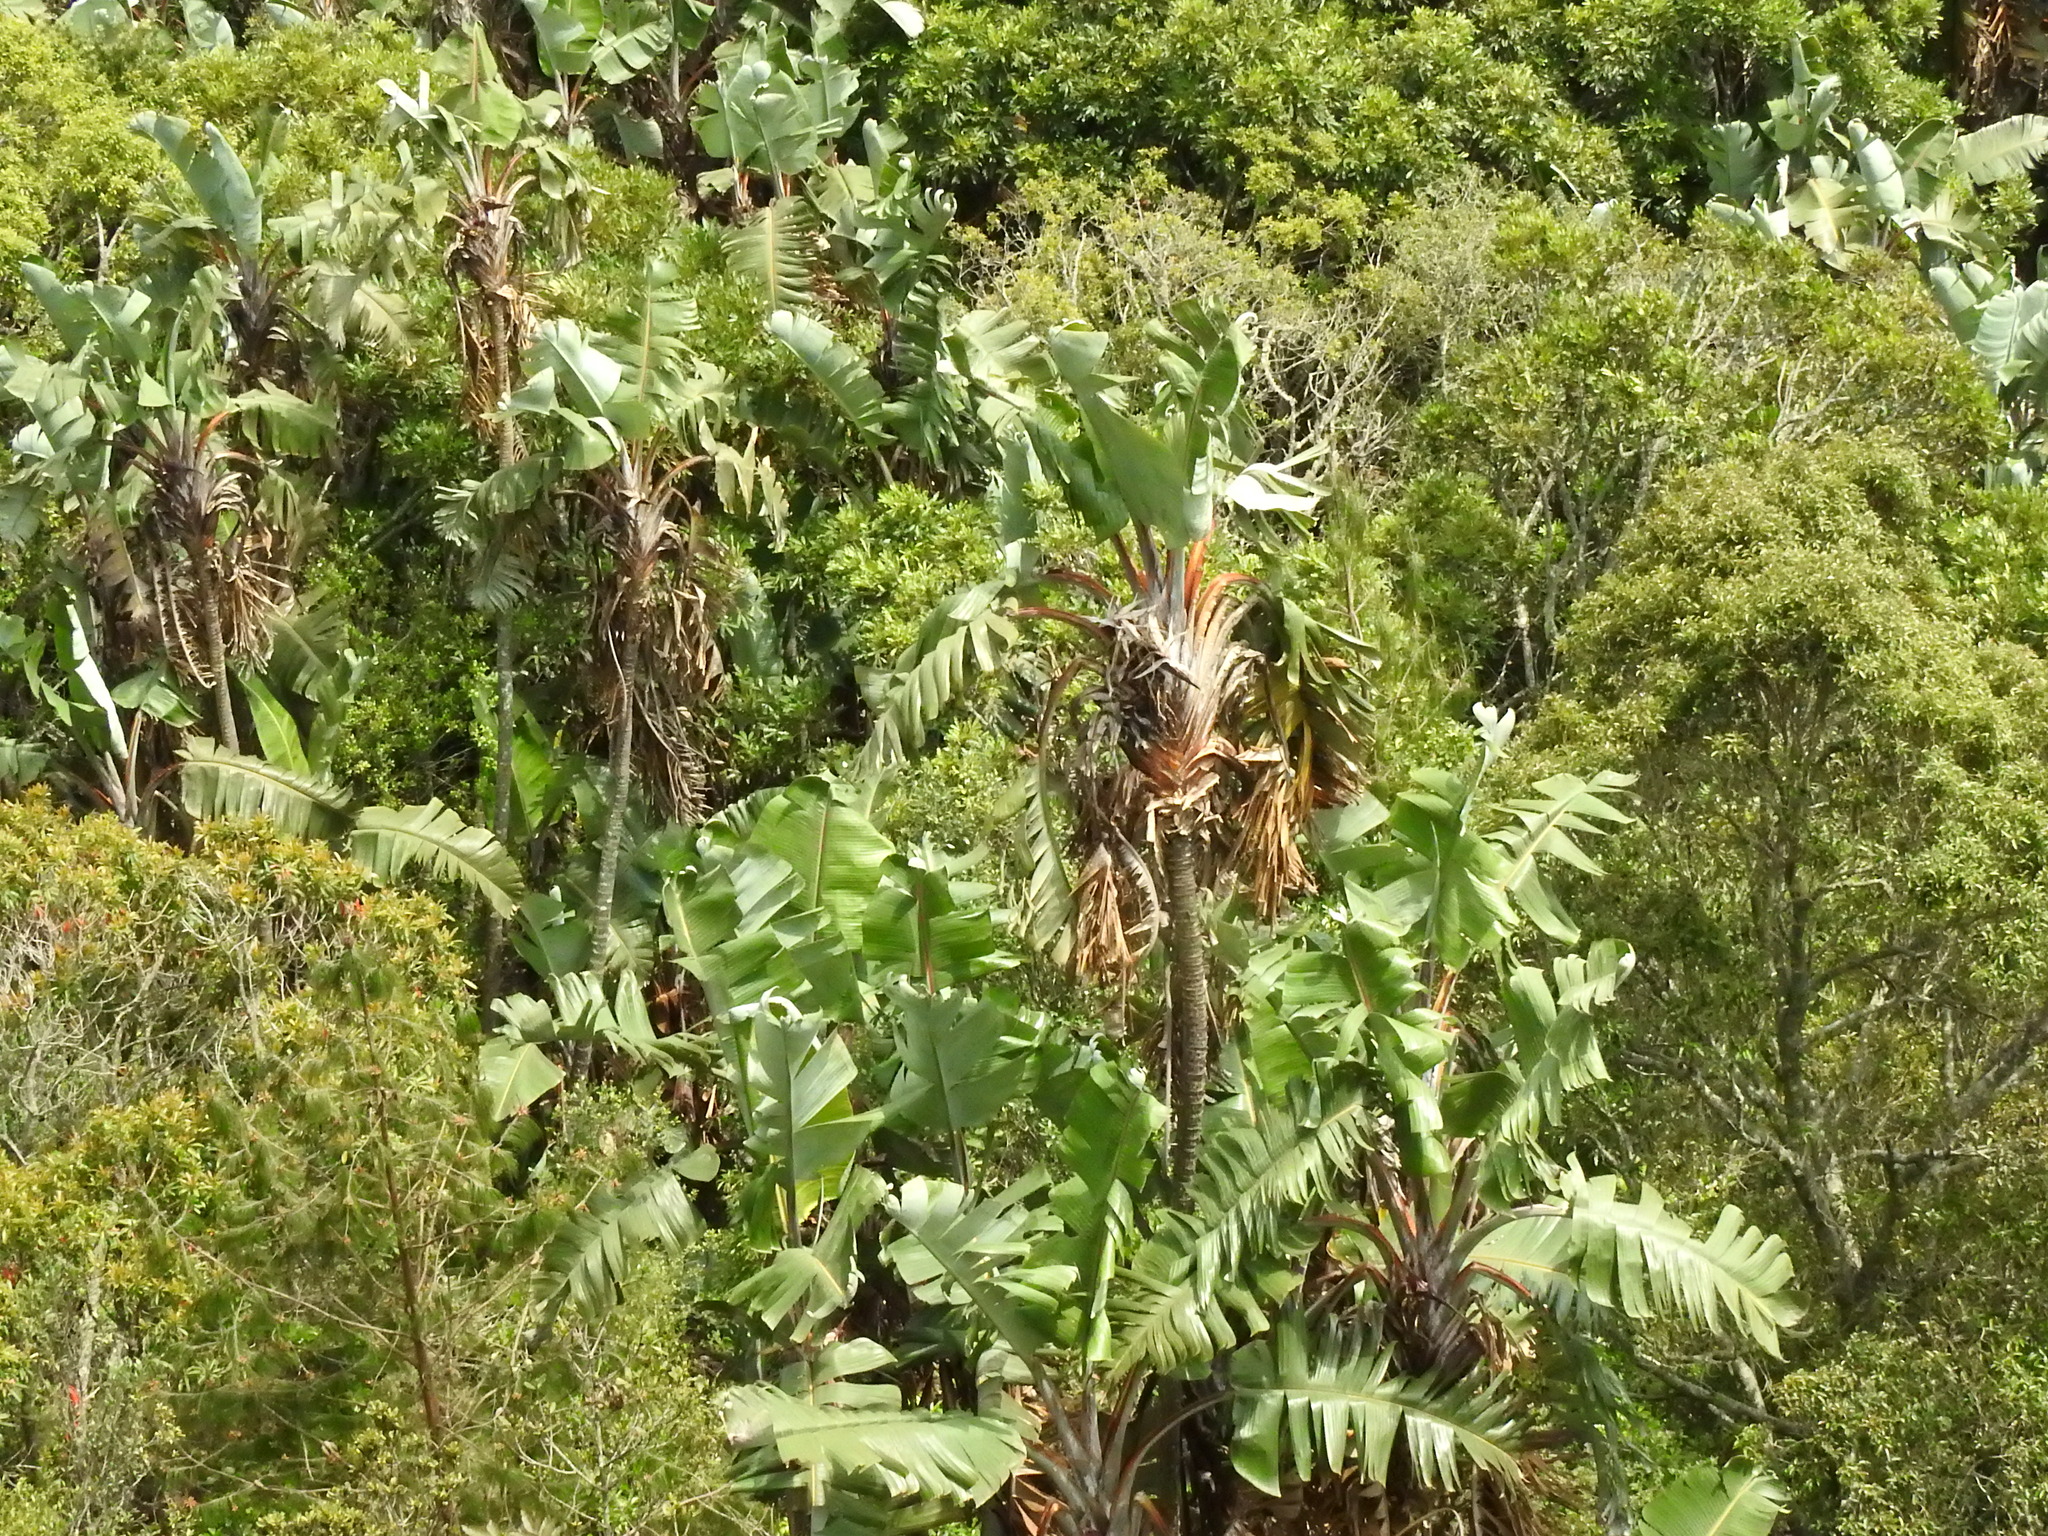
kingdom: Plantae
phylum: Tracheophyta
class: Liliopsida
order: Zingiberales
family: Strelitziaceae
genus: Strelitzia
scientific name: Strelitzia caudata
